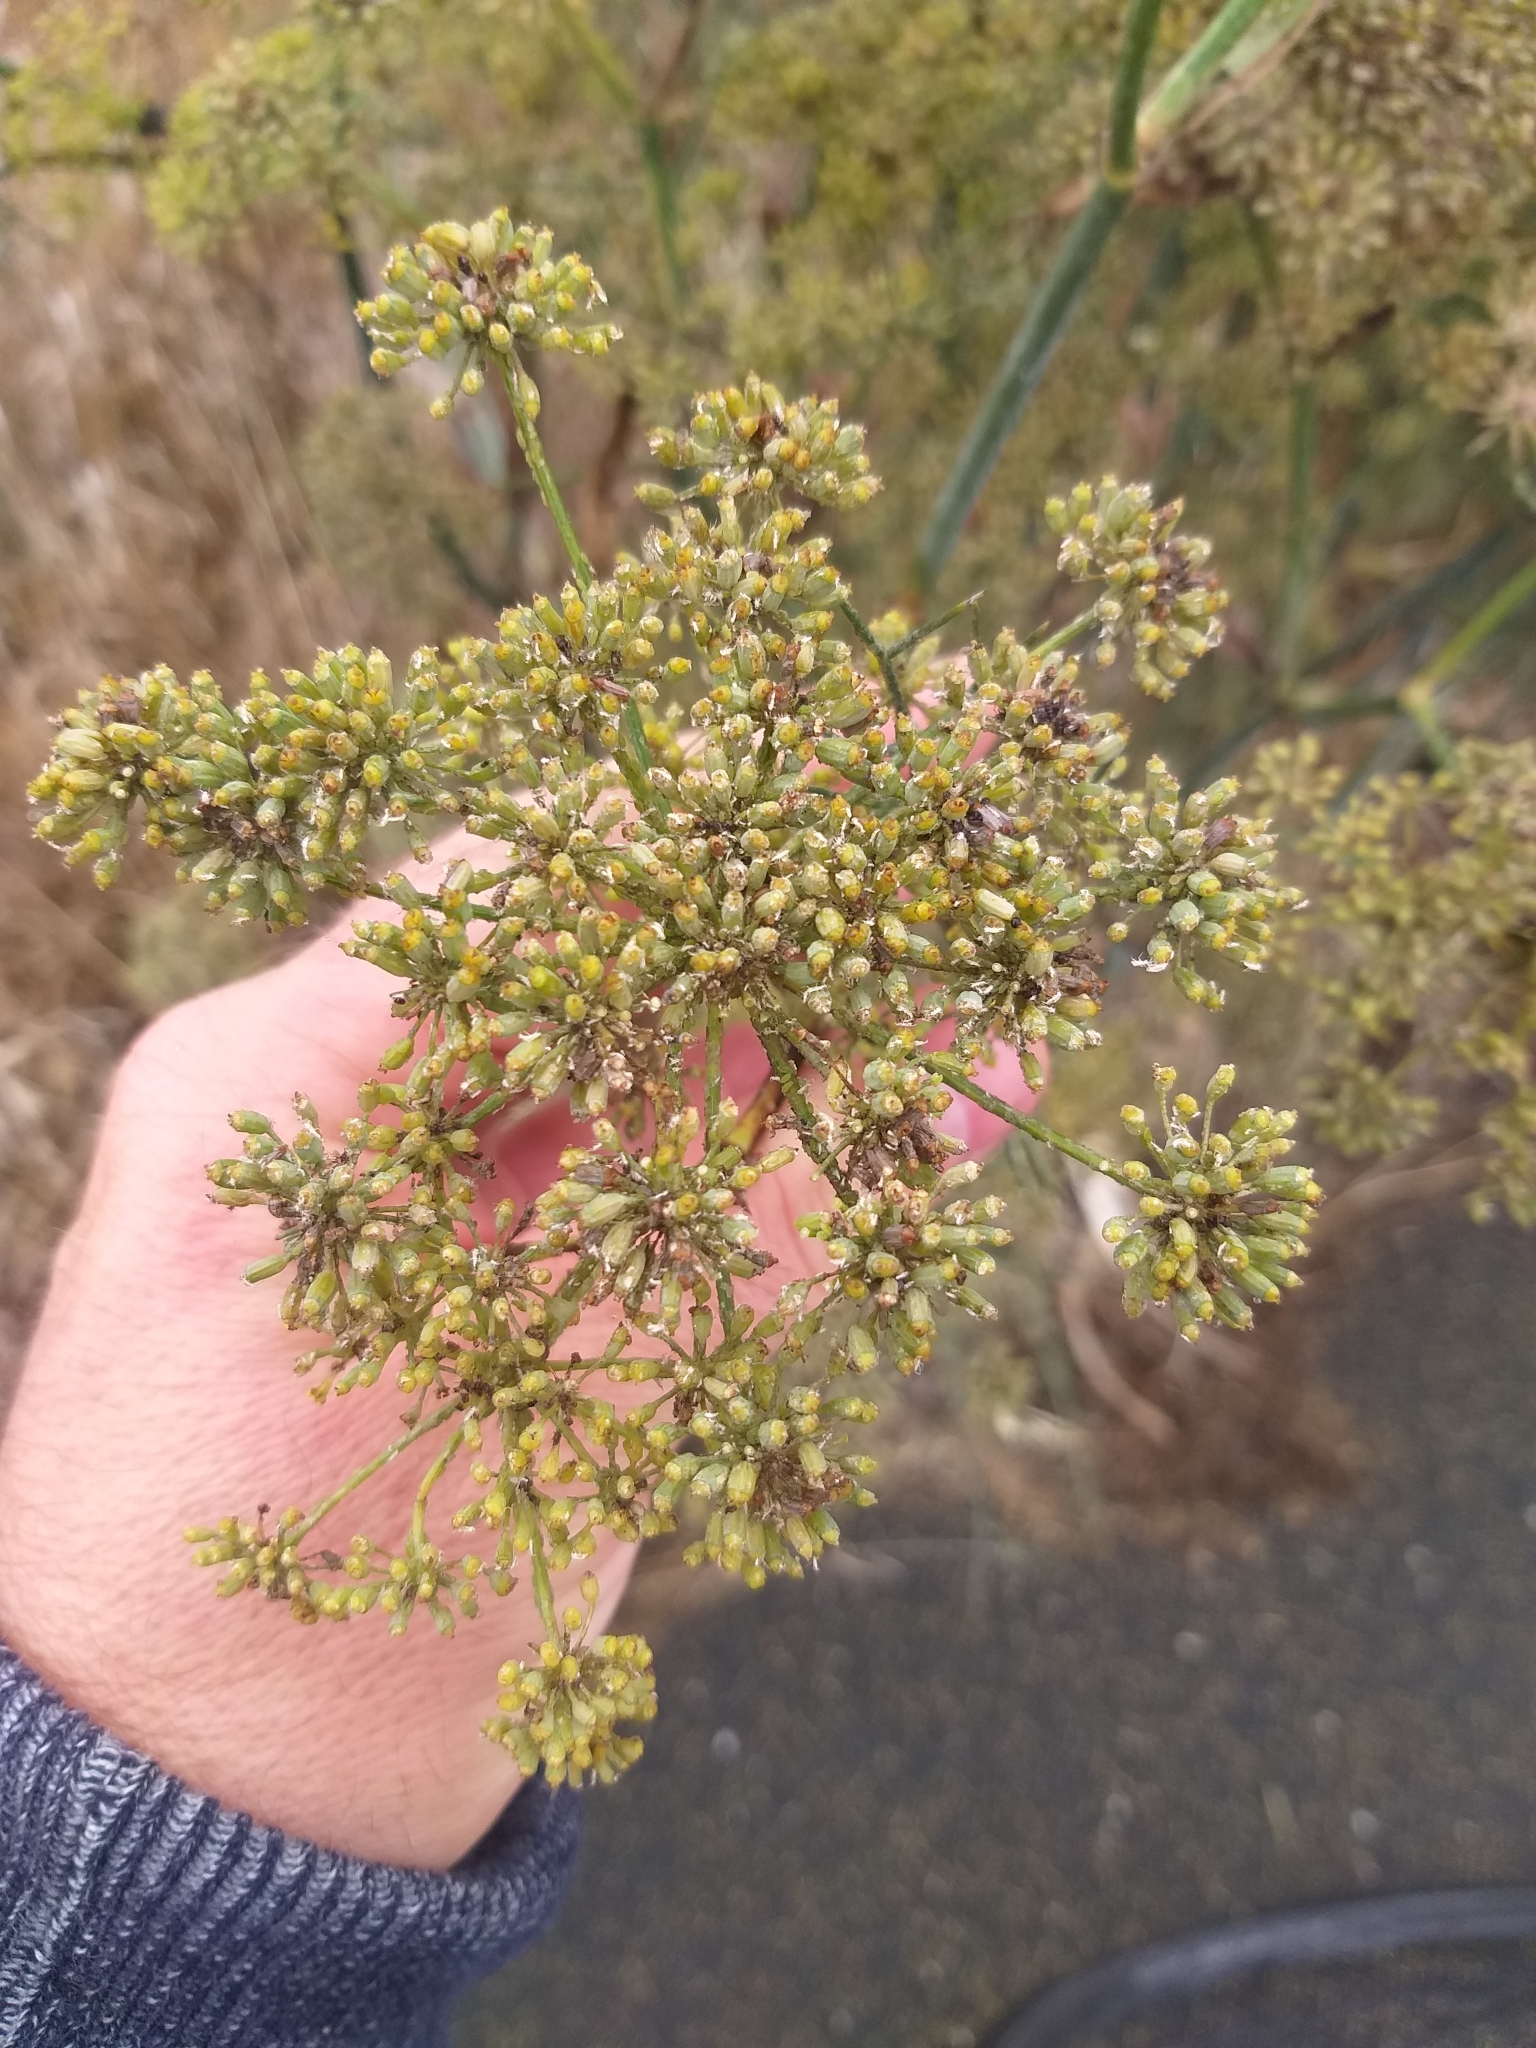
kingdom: Plantae
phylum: Tracheophyta
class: Magnoliopsida
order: Apiales
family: Apiaceae
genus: Foeniculum
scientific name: Foeniculum vulgare
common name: Fennel
